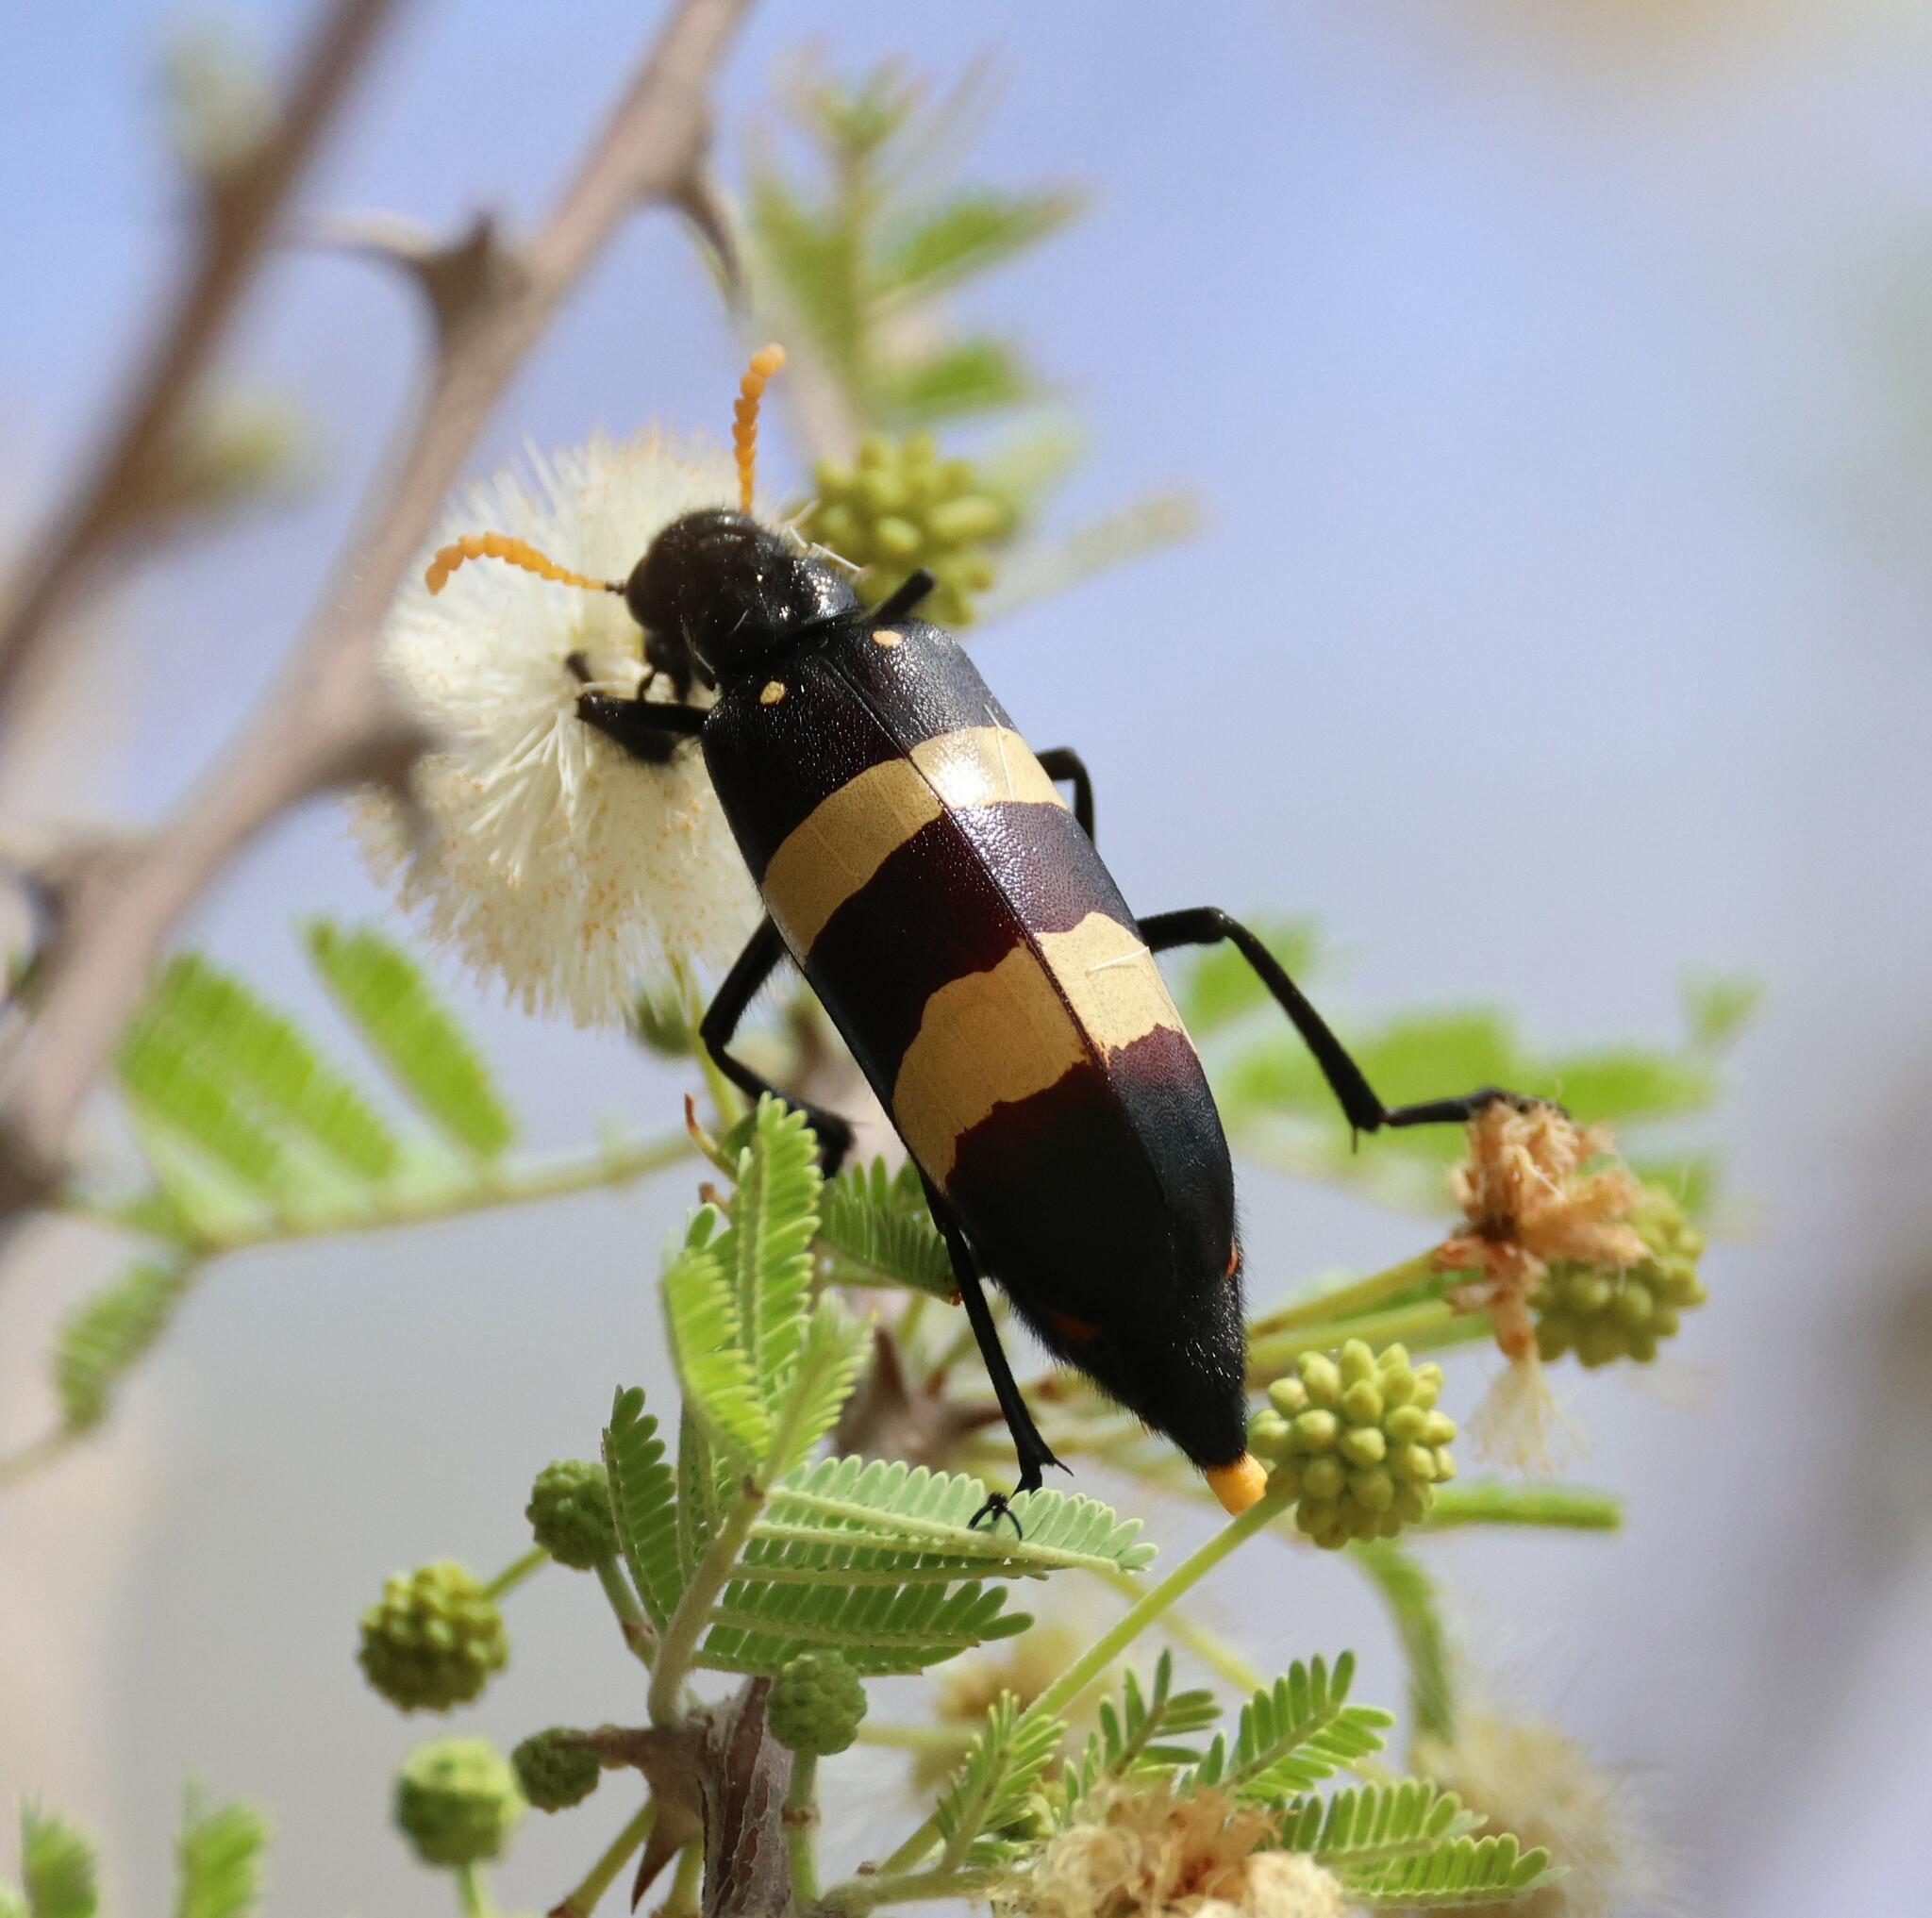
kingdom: Animalia
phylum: Arthropoda
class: Insecta
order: Coleoptera
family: Meloidae
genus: Hycleus
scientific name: Hycleus
